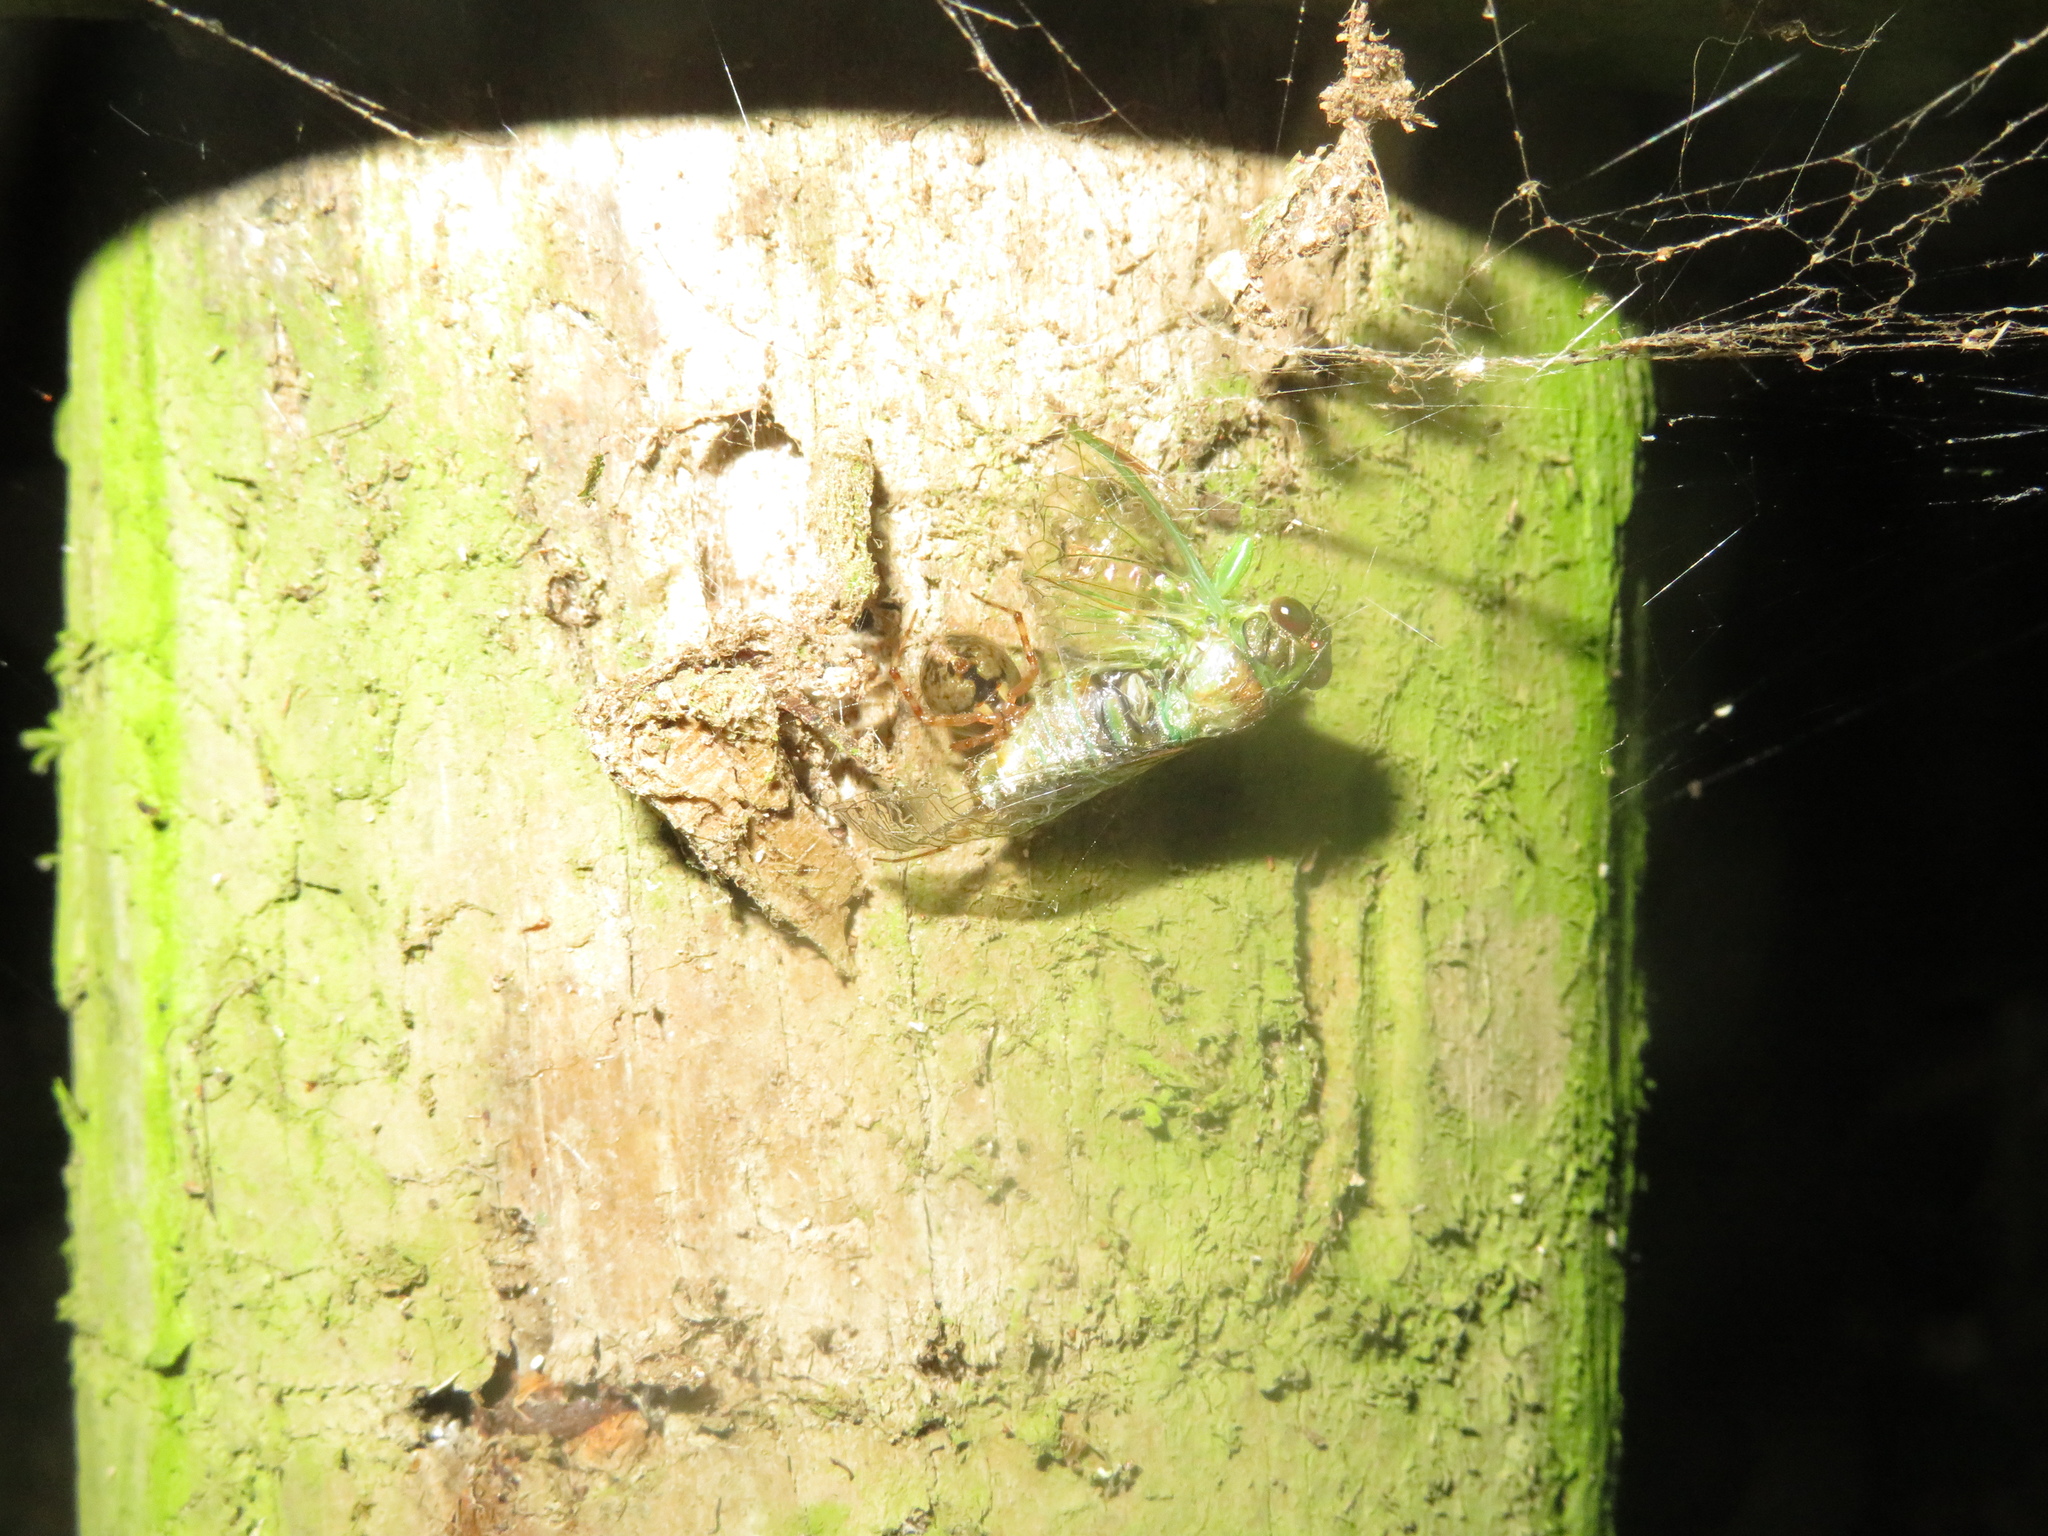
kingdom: Animalia
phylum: Arthropoda
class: Arachnida
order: Araneae
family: Theridiidae
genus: Theridion
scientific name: Theridion zantholabio
